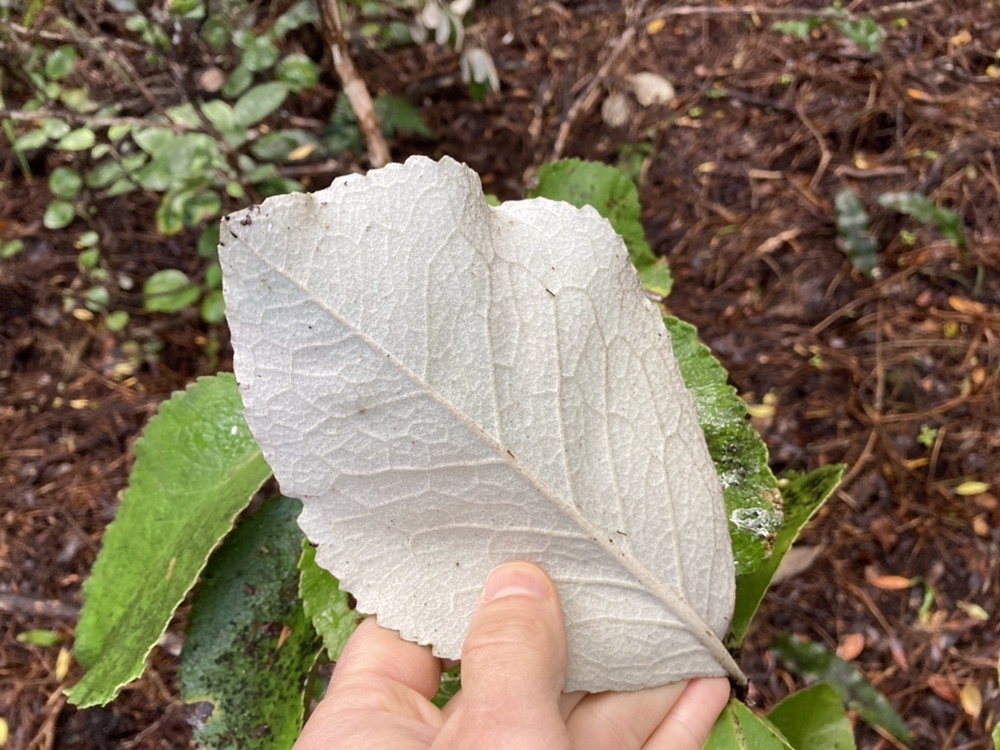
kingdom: Plantae
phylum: Tracheophyta
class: Magnoliopsida
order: Asterales
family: Asteraceae
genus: Macrolearia
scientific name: Macrolearia colensoi
